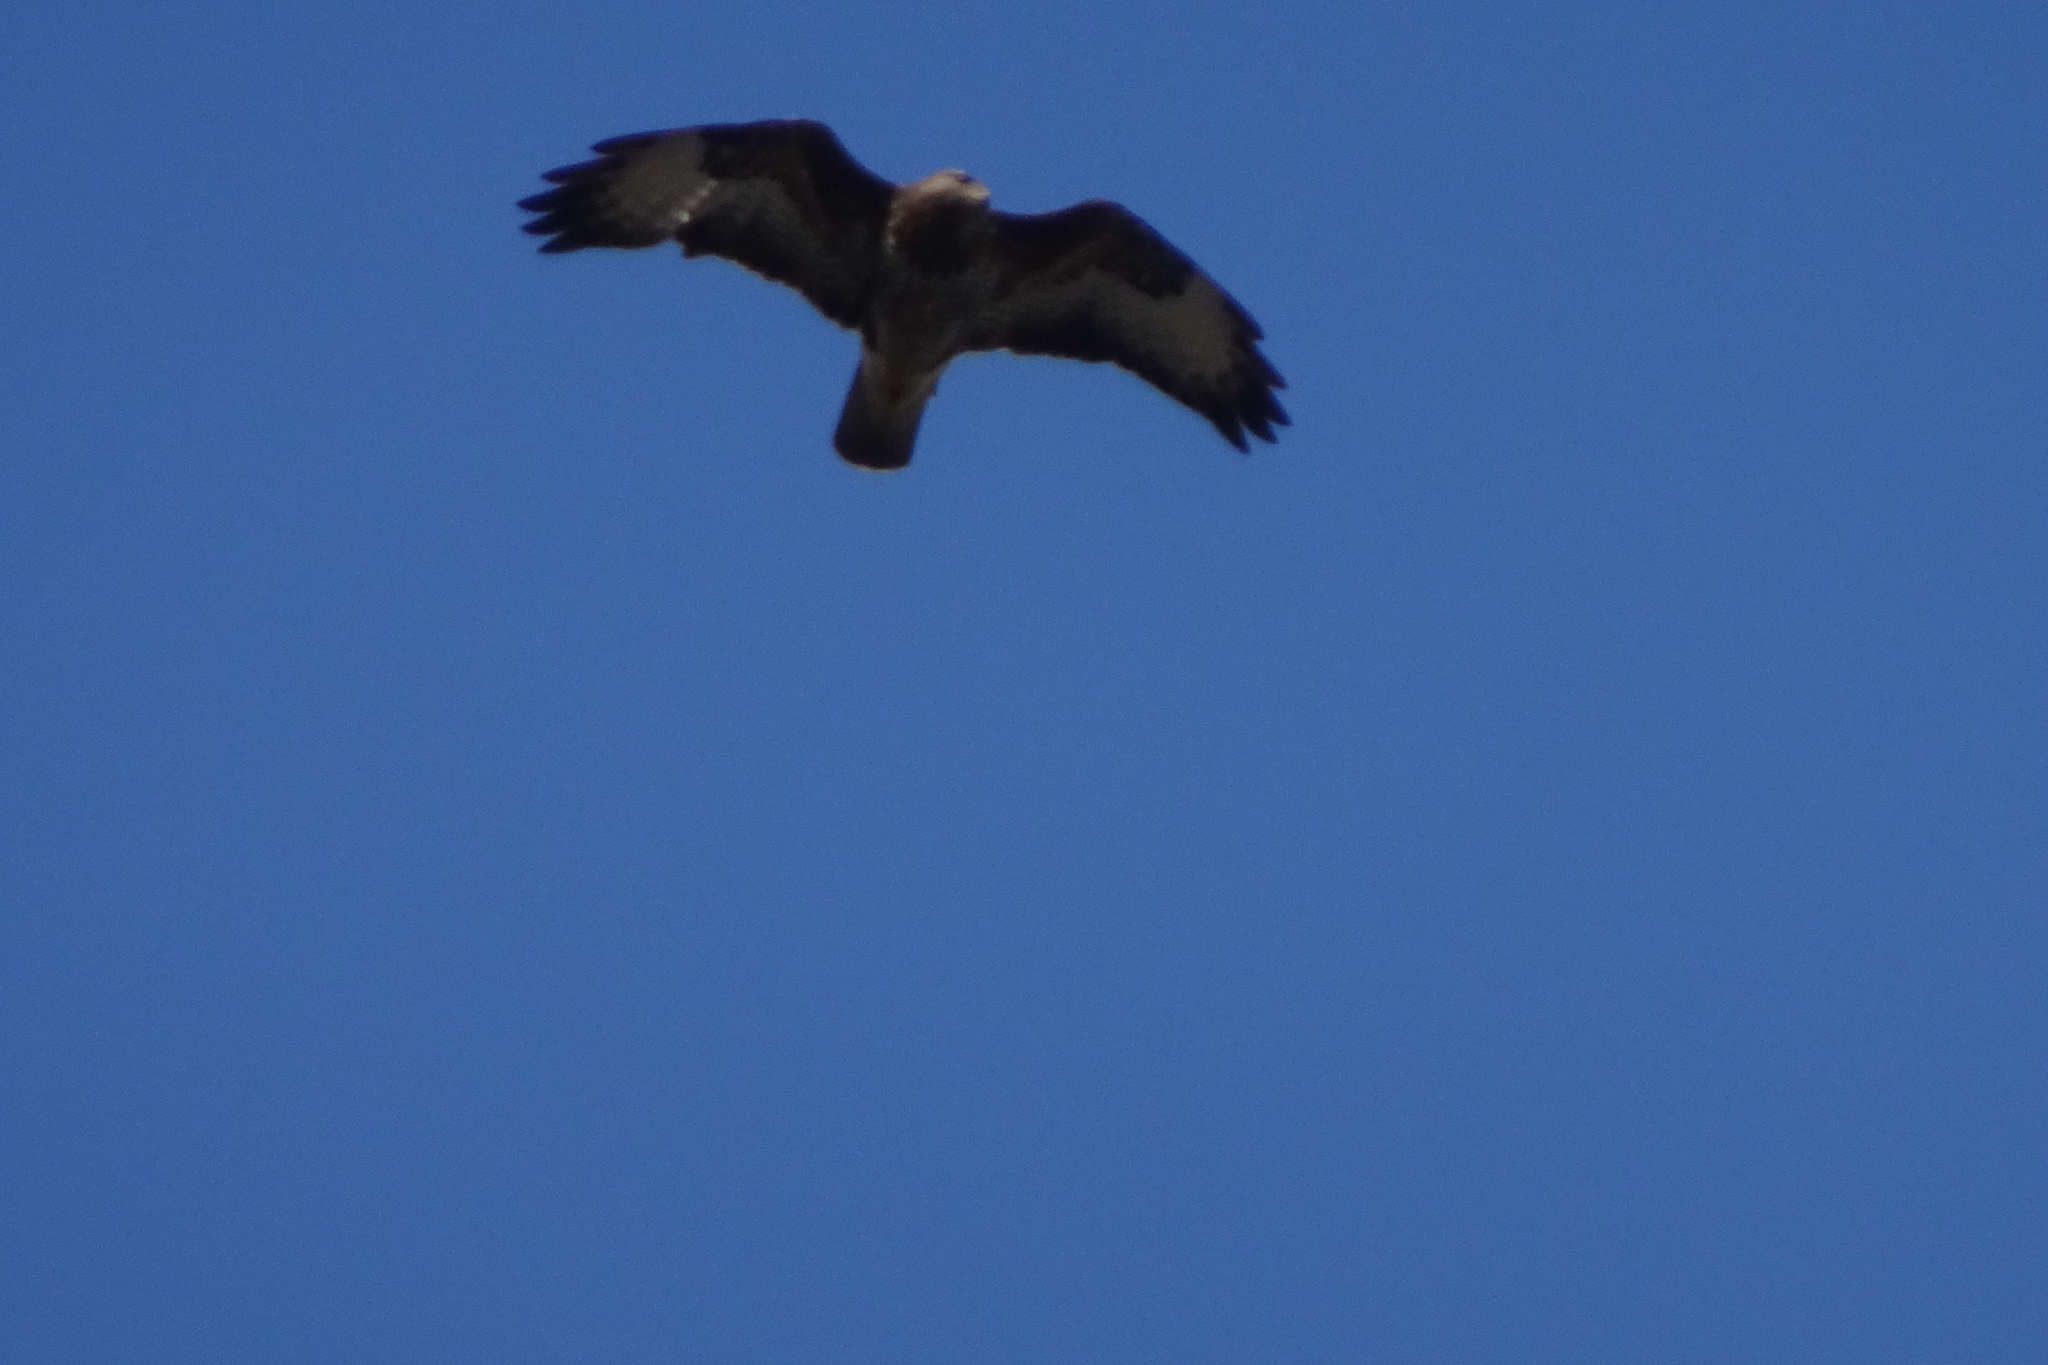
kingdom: Animalia
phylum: Chordata
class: Aves
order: Accipitriformes
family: Accipitridae
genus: Buteo
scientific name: Buteo buteo
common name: Common buzzard
